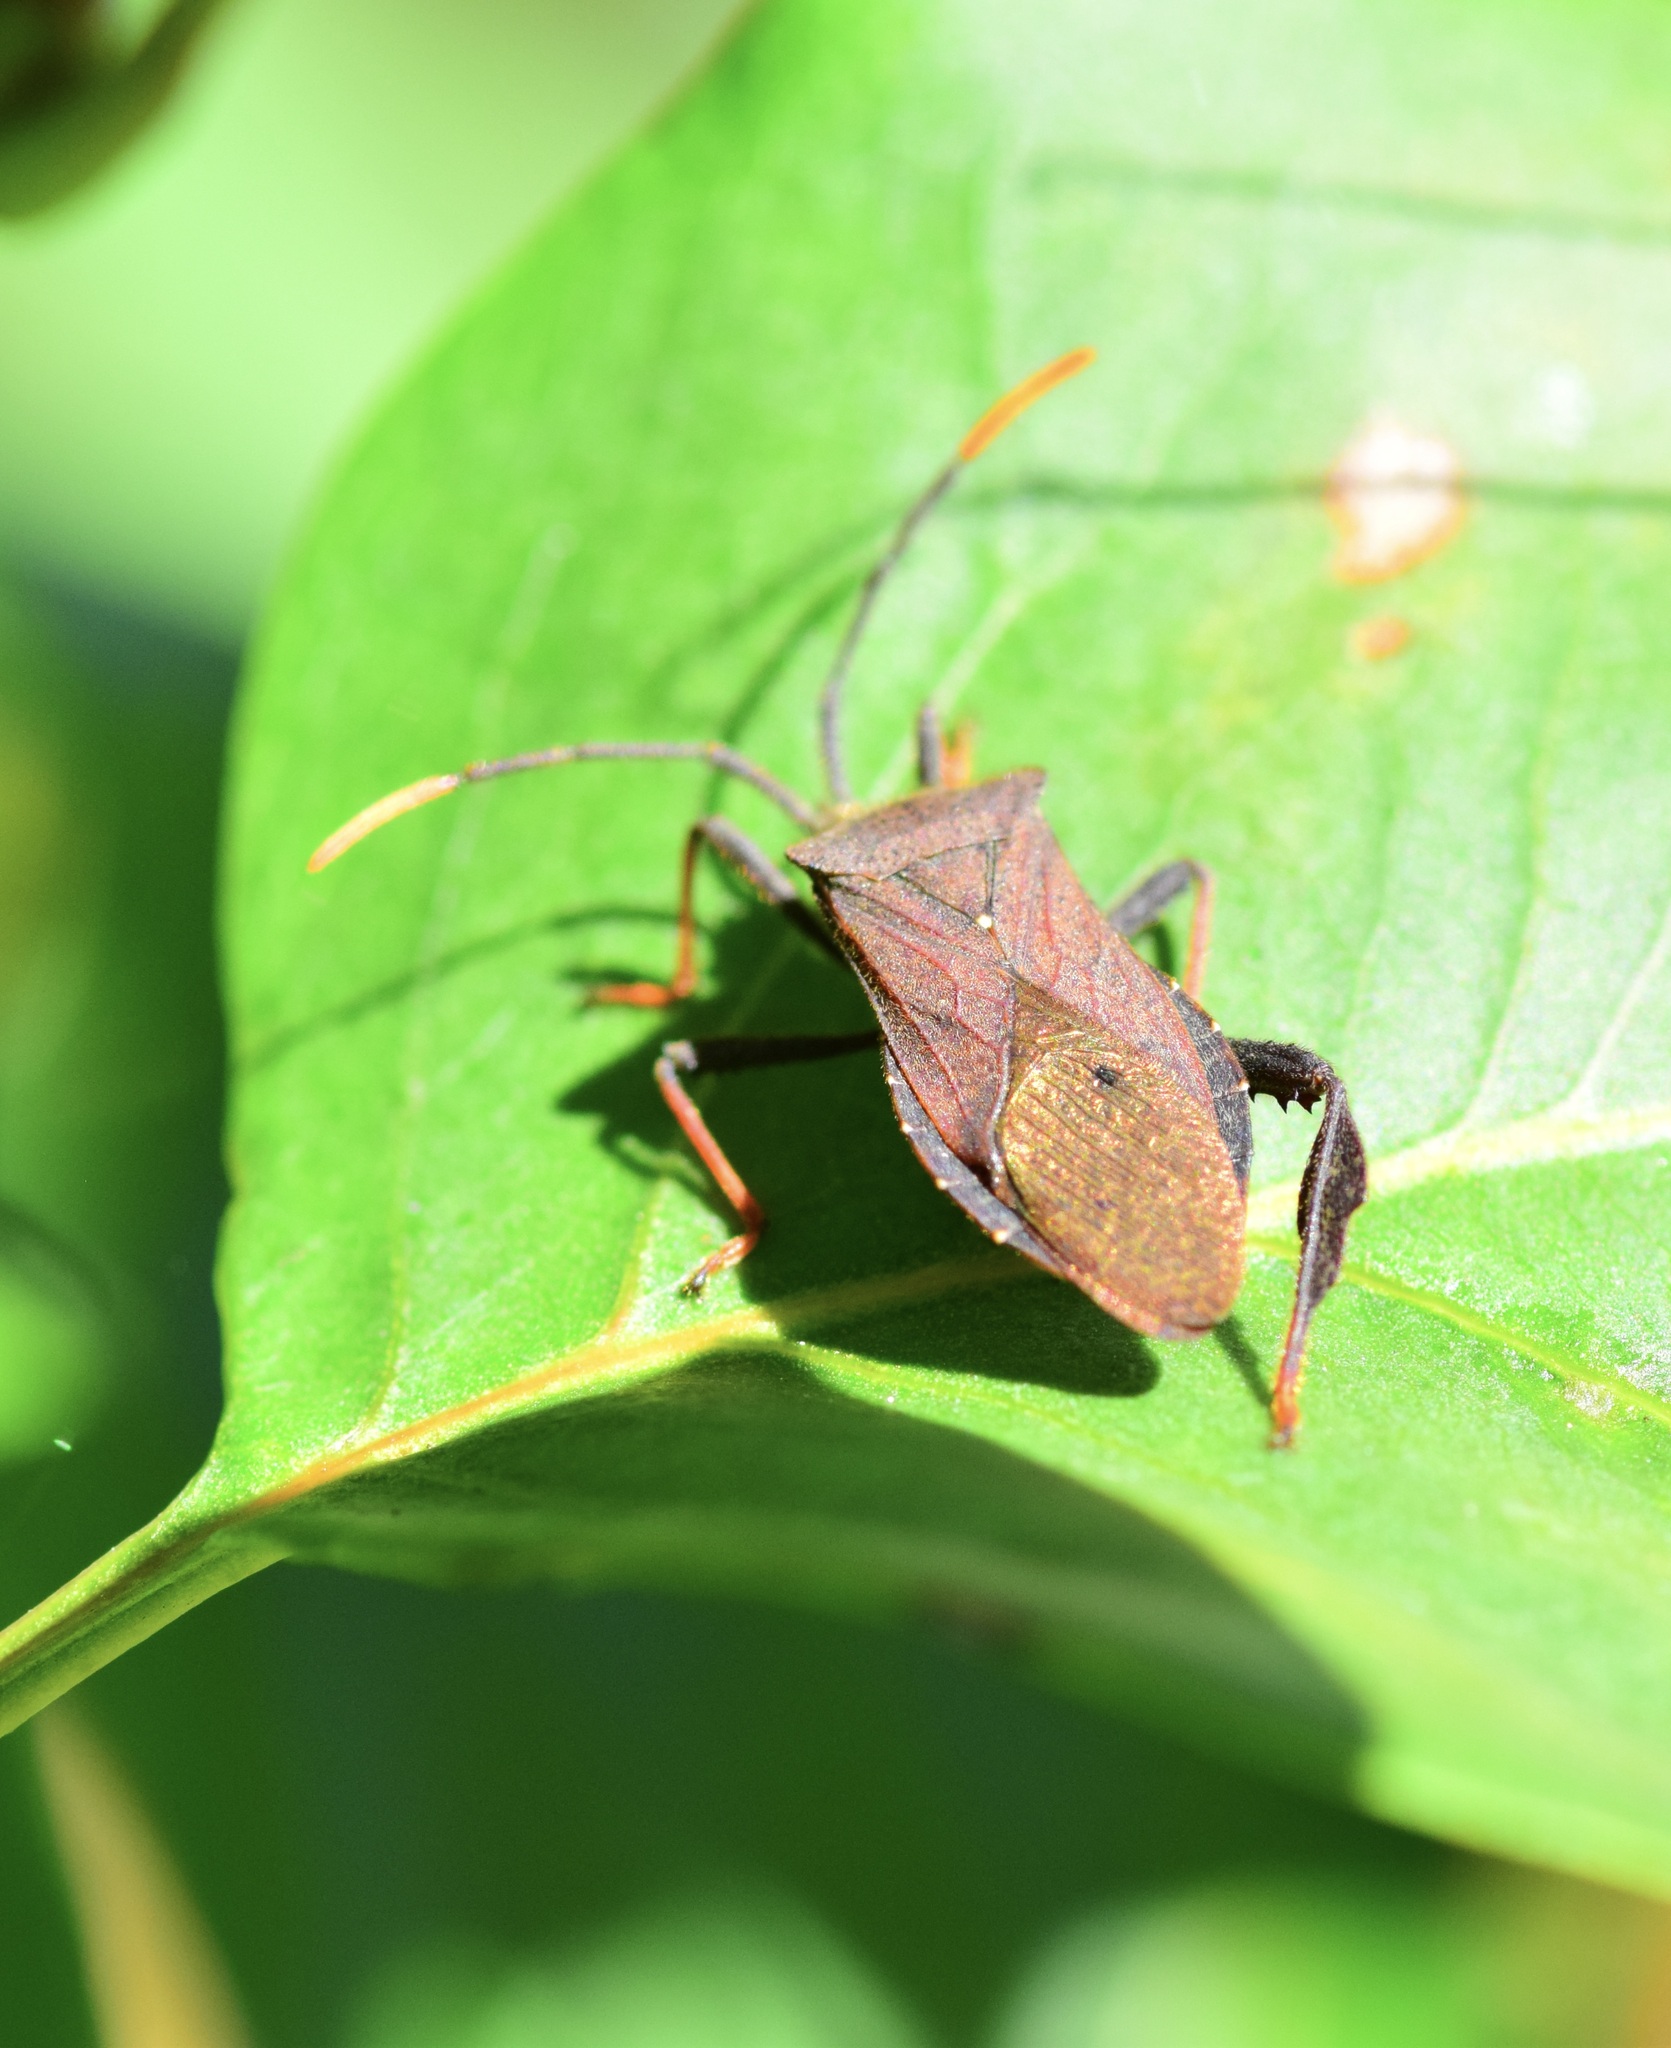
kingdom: Animalia
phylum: Arthropoda
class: Insecta
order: Hemiptera
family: Coreidae
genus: Acanthocephala
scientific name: Acanthocephala terminalis
